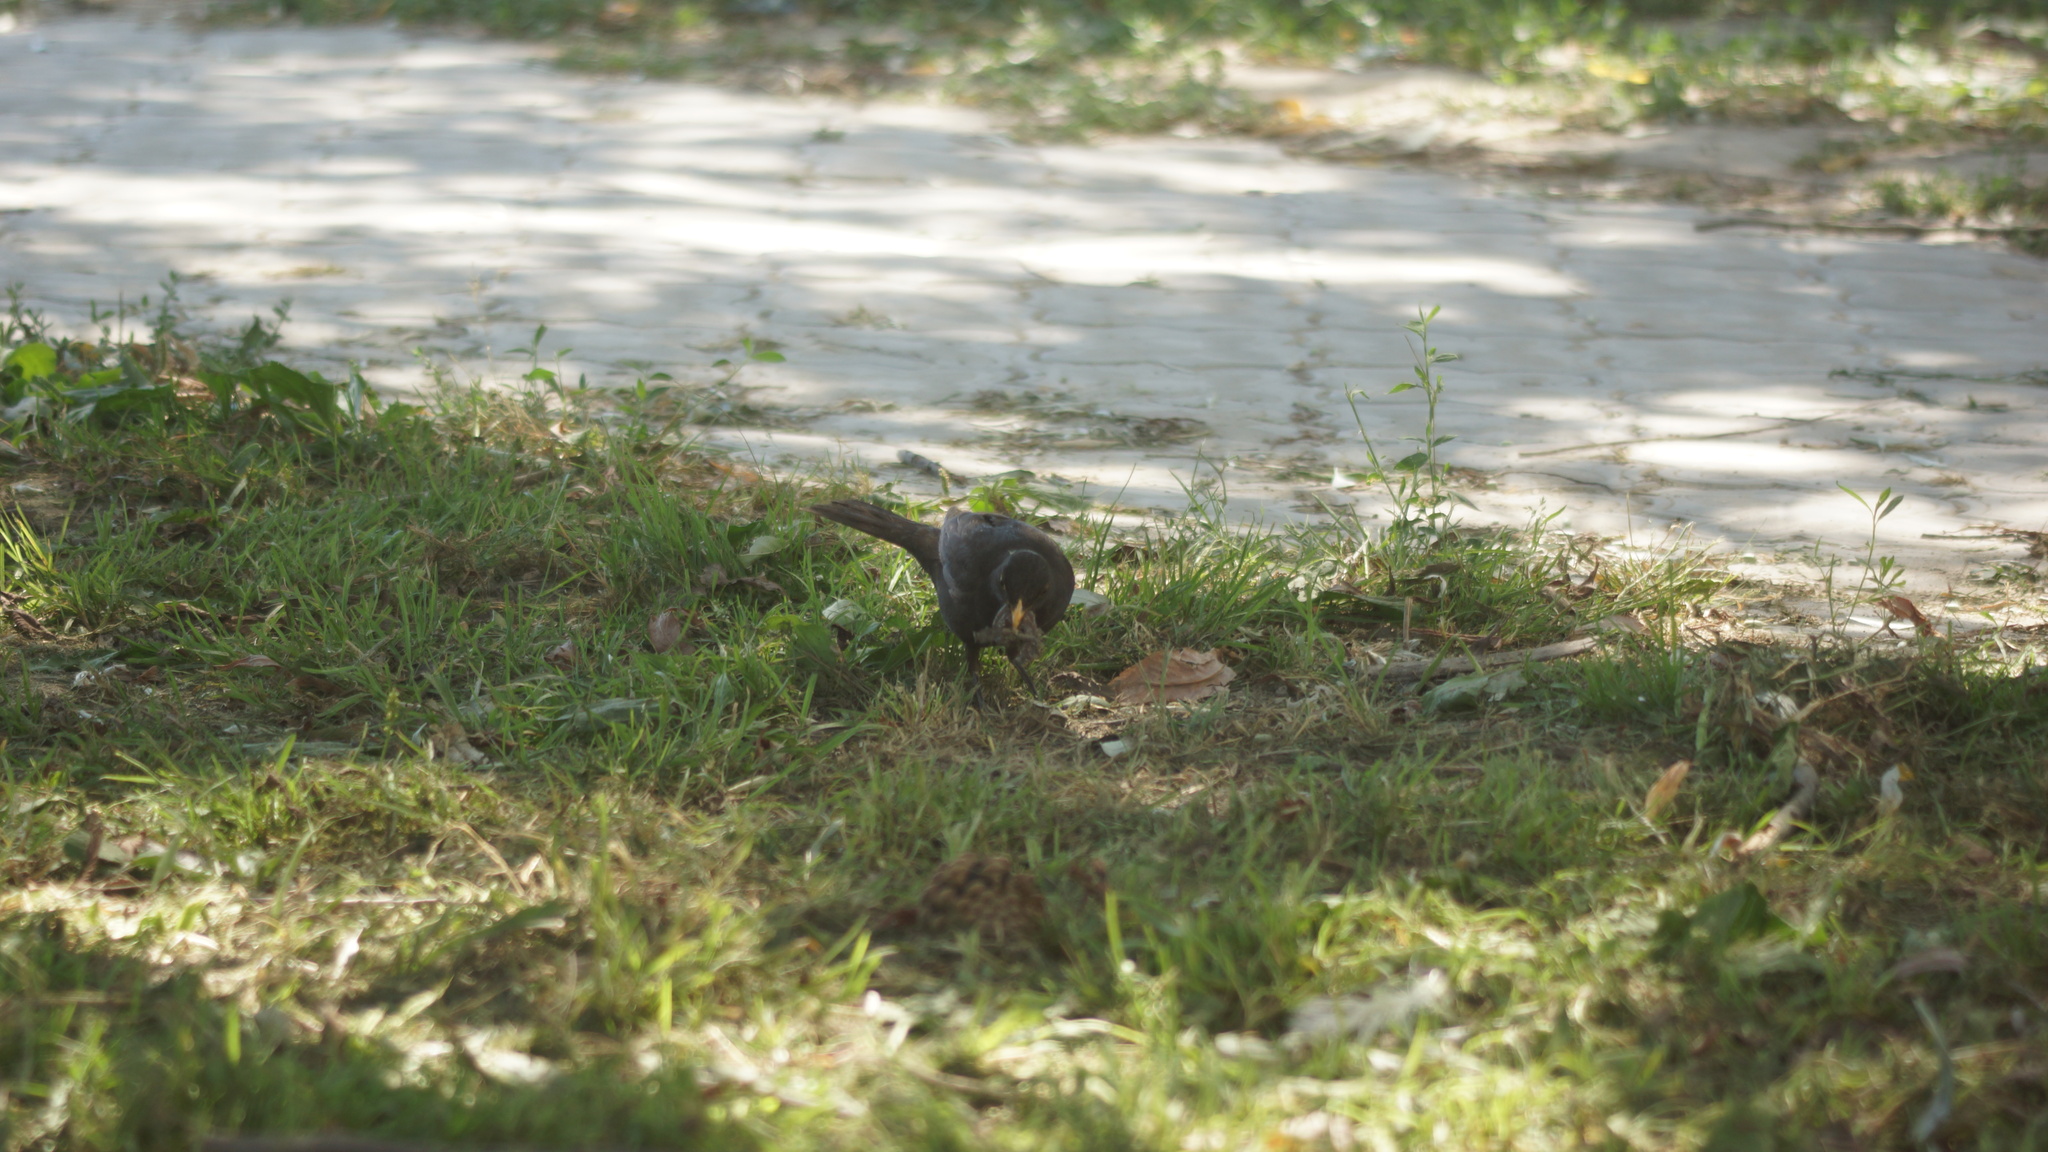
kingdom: Animalia
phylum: Chordata
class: Aves
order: Passeriformes
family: Turdidae
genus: Turdus
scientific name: Turdus merula
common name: Common blackbird
